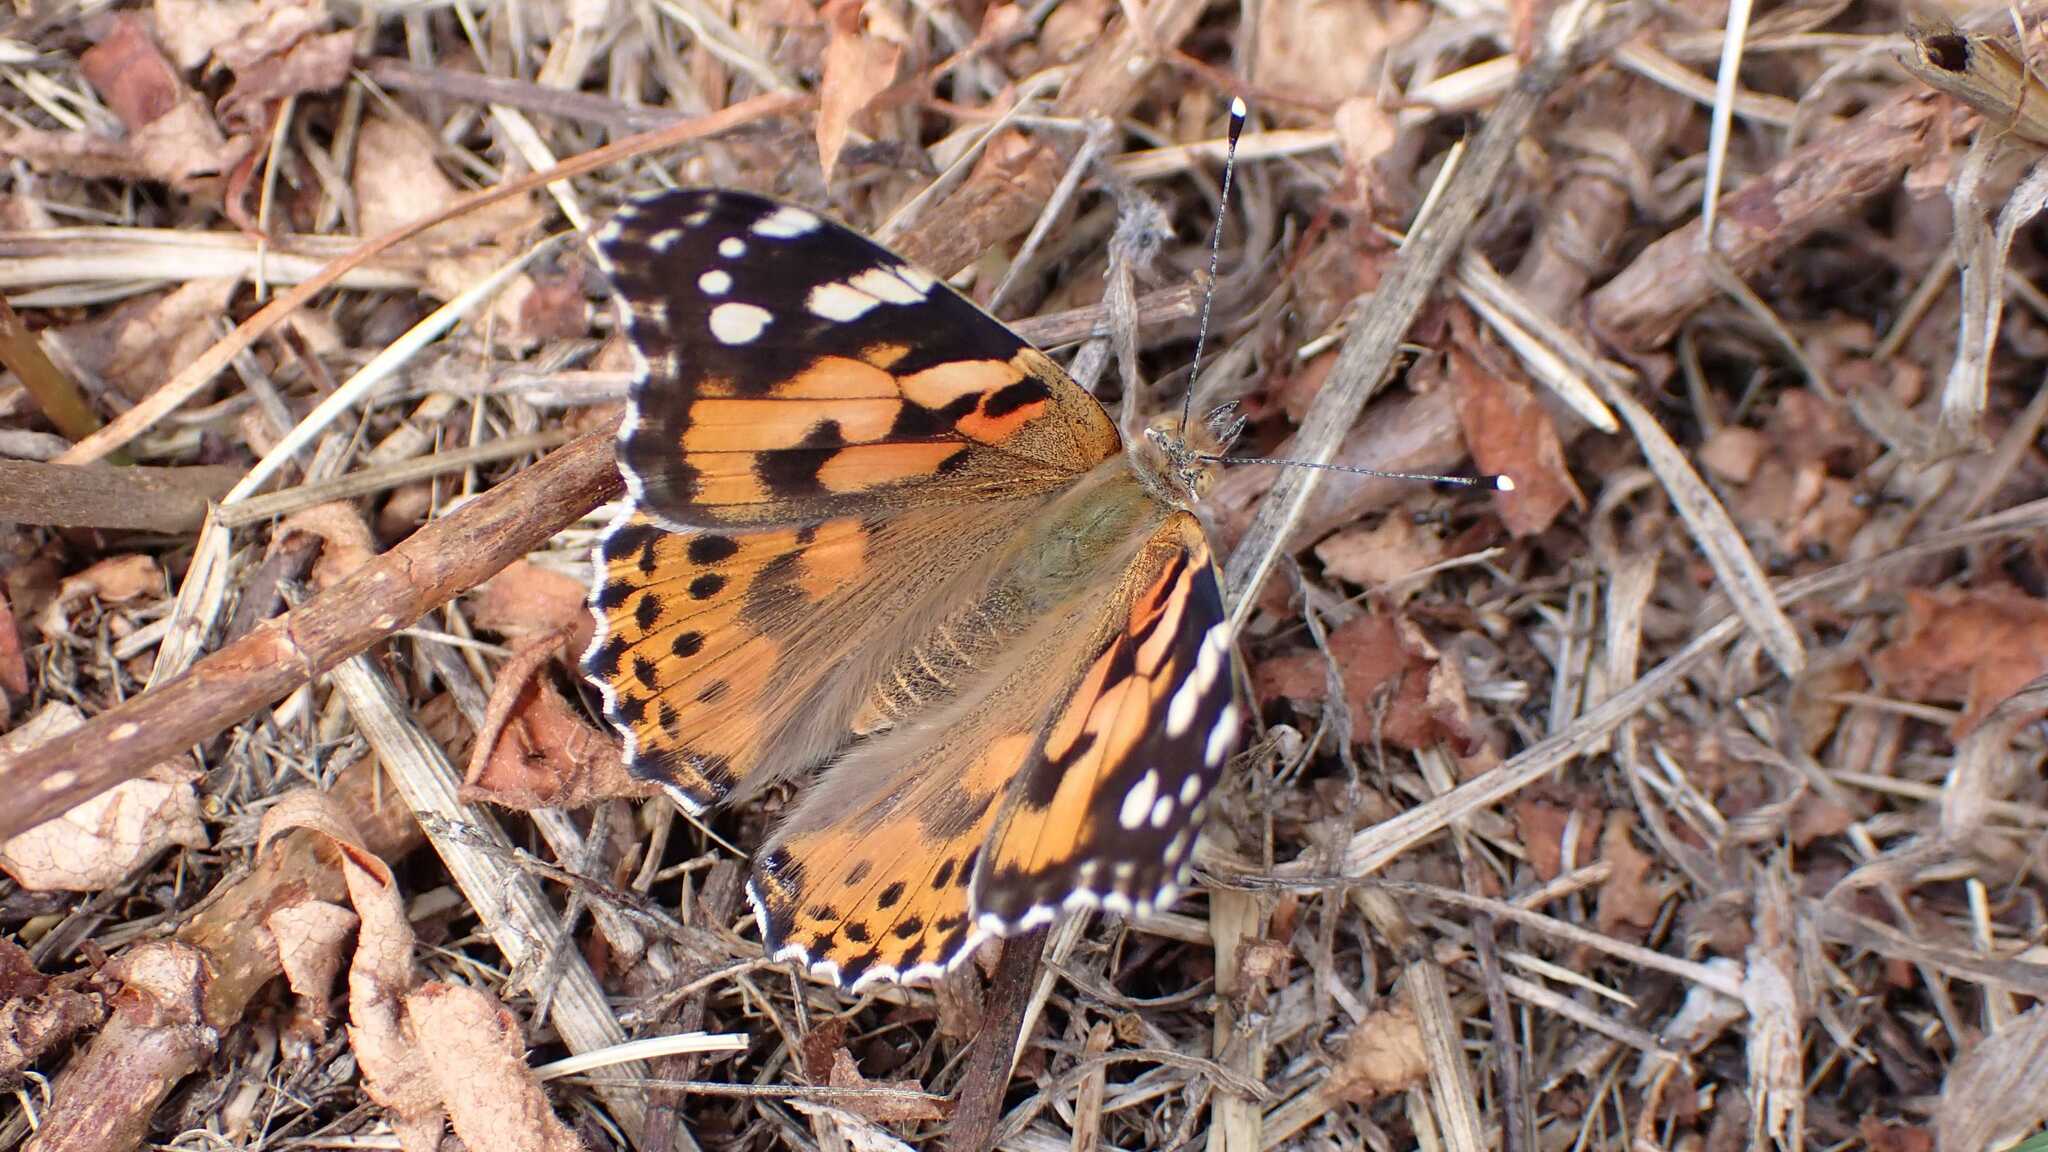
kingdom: Animalia
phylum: Arthropoda
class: Insecta
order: Lepidoptera
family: Nymphalidae
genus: Vanessa
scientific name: Vanessa cardui
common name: Painted lady
